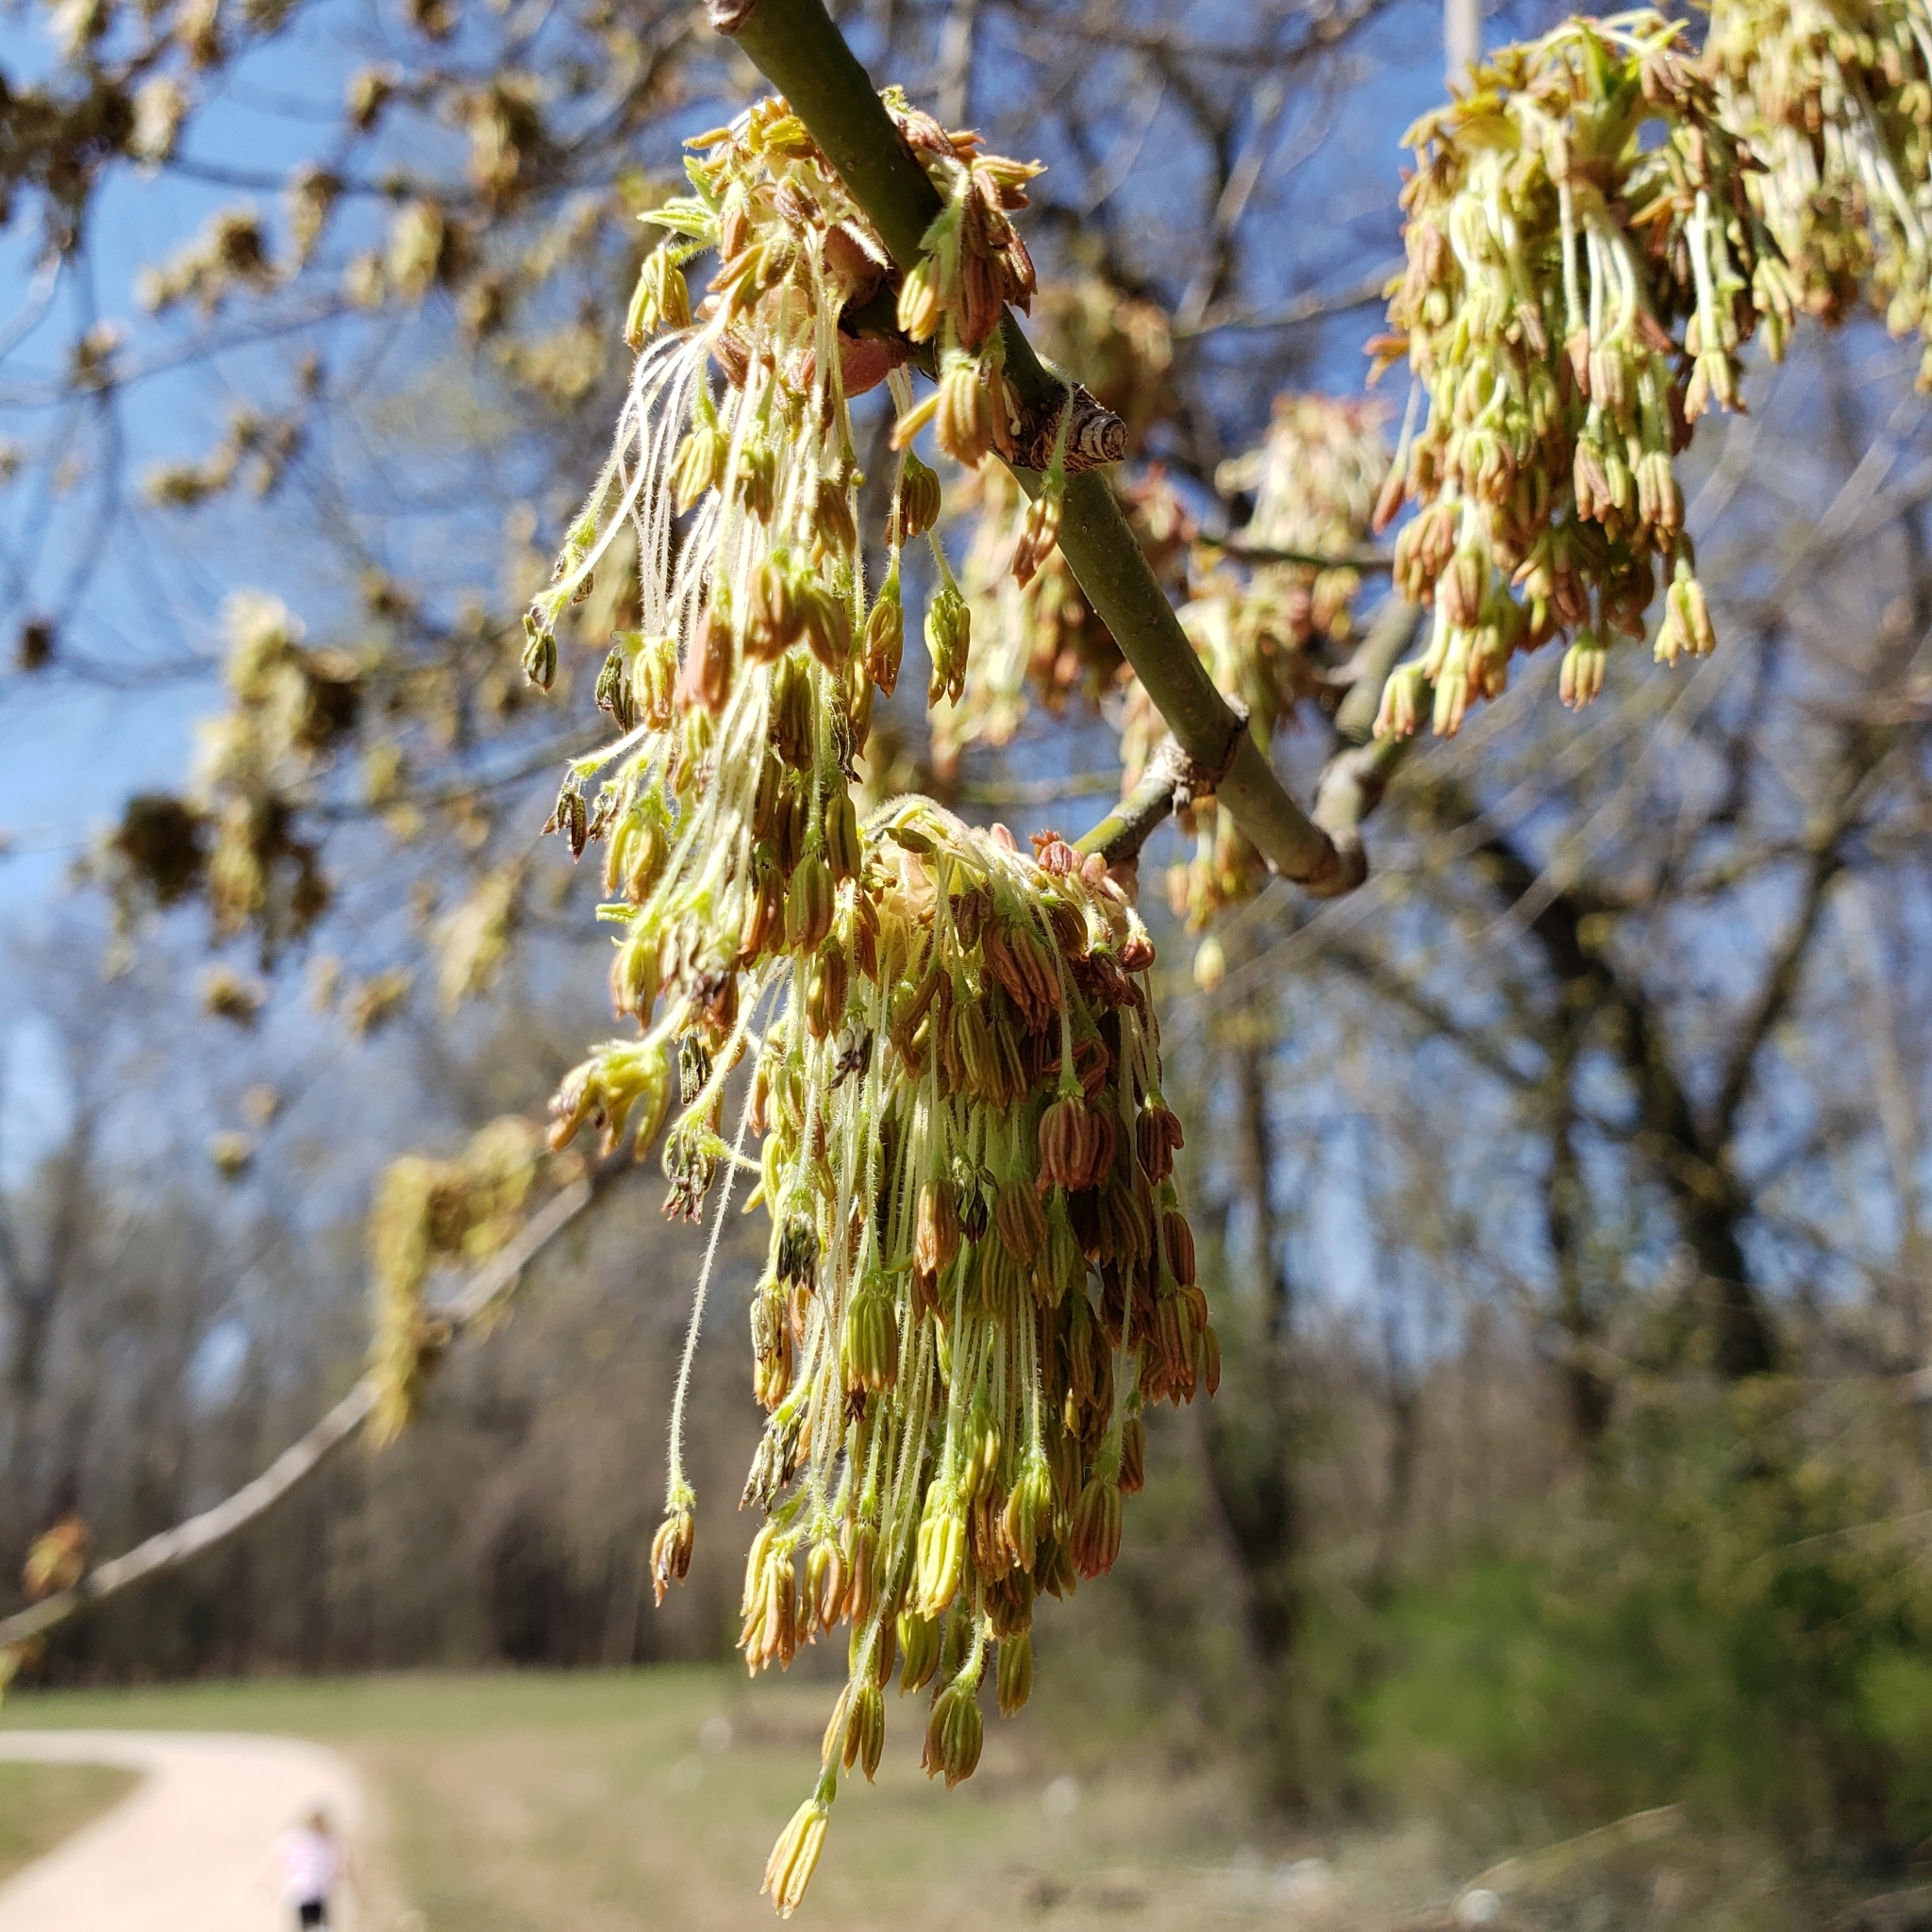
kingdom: Plantae
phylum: Tracheophyta
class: Magnoliopsida
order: Sapindales
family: Sapindaceae
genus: Acer
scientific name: Acer negundo
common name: Ashleaf maple
